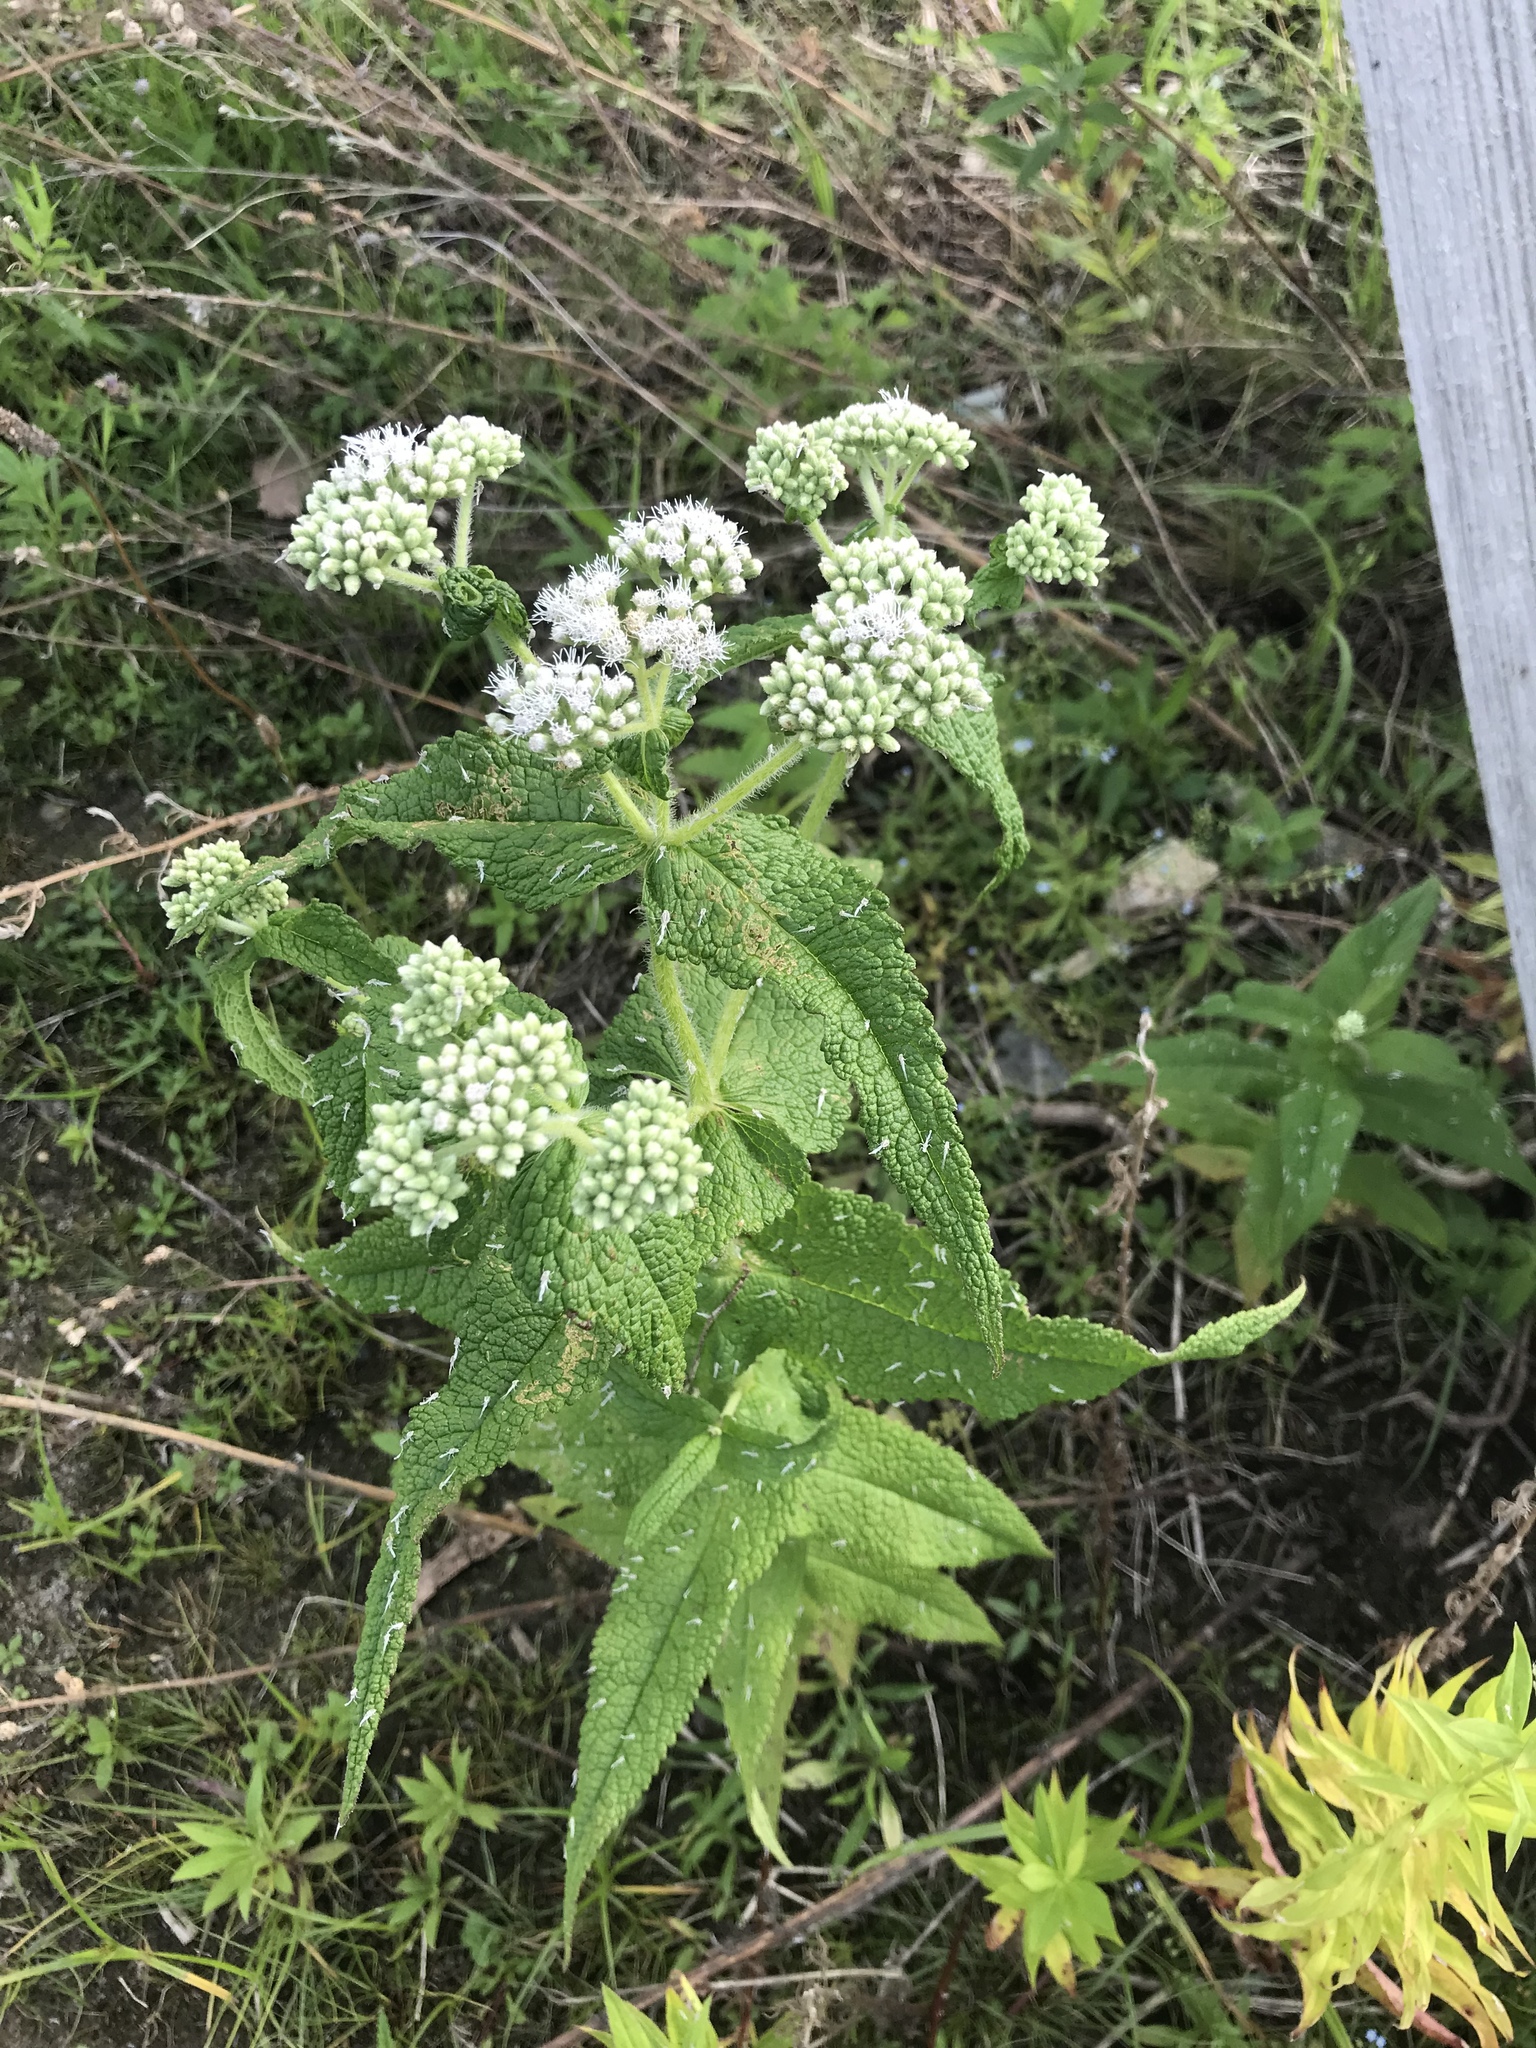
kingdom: Plantae
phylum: Tracheophyta
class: Magnoliopsida
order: Asterales
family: Asteraceae
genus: Eupatorium
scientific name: Eupatorium perfoliatum
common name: Boneset
